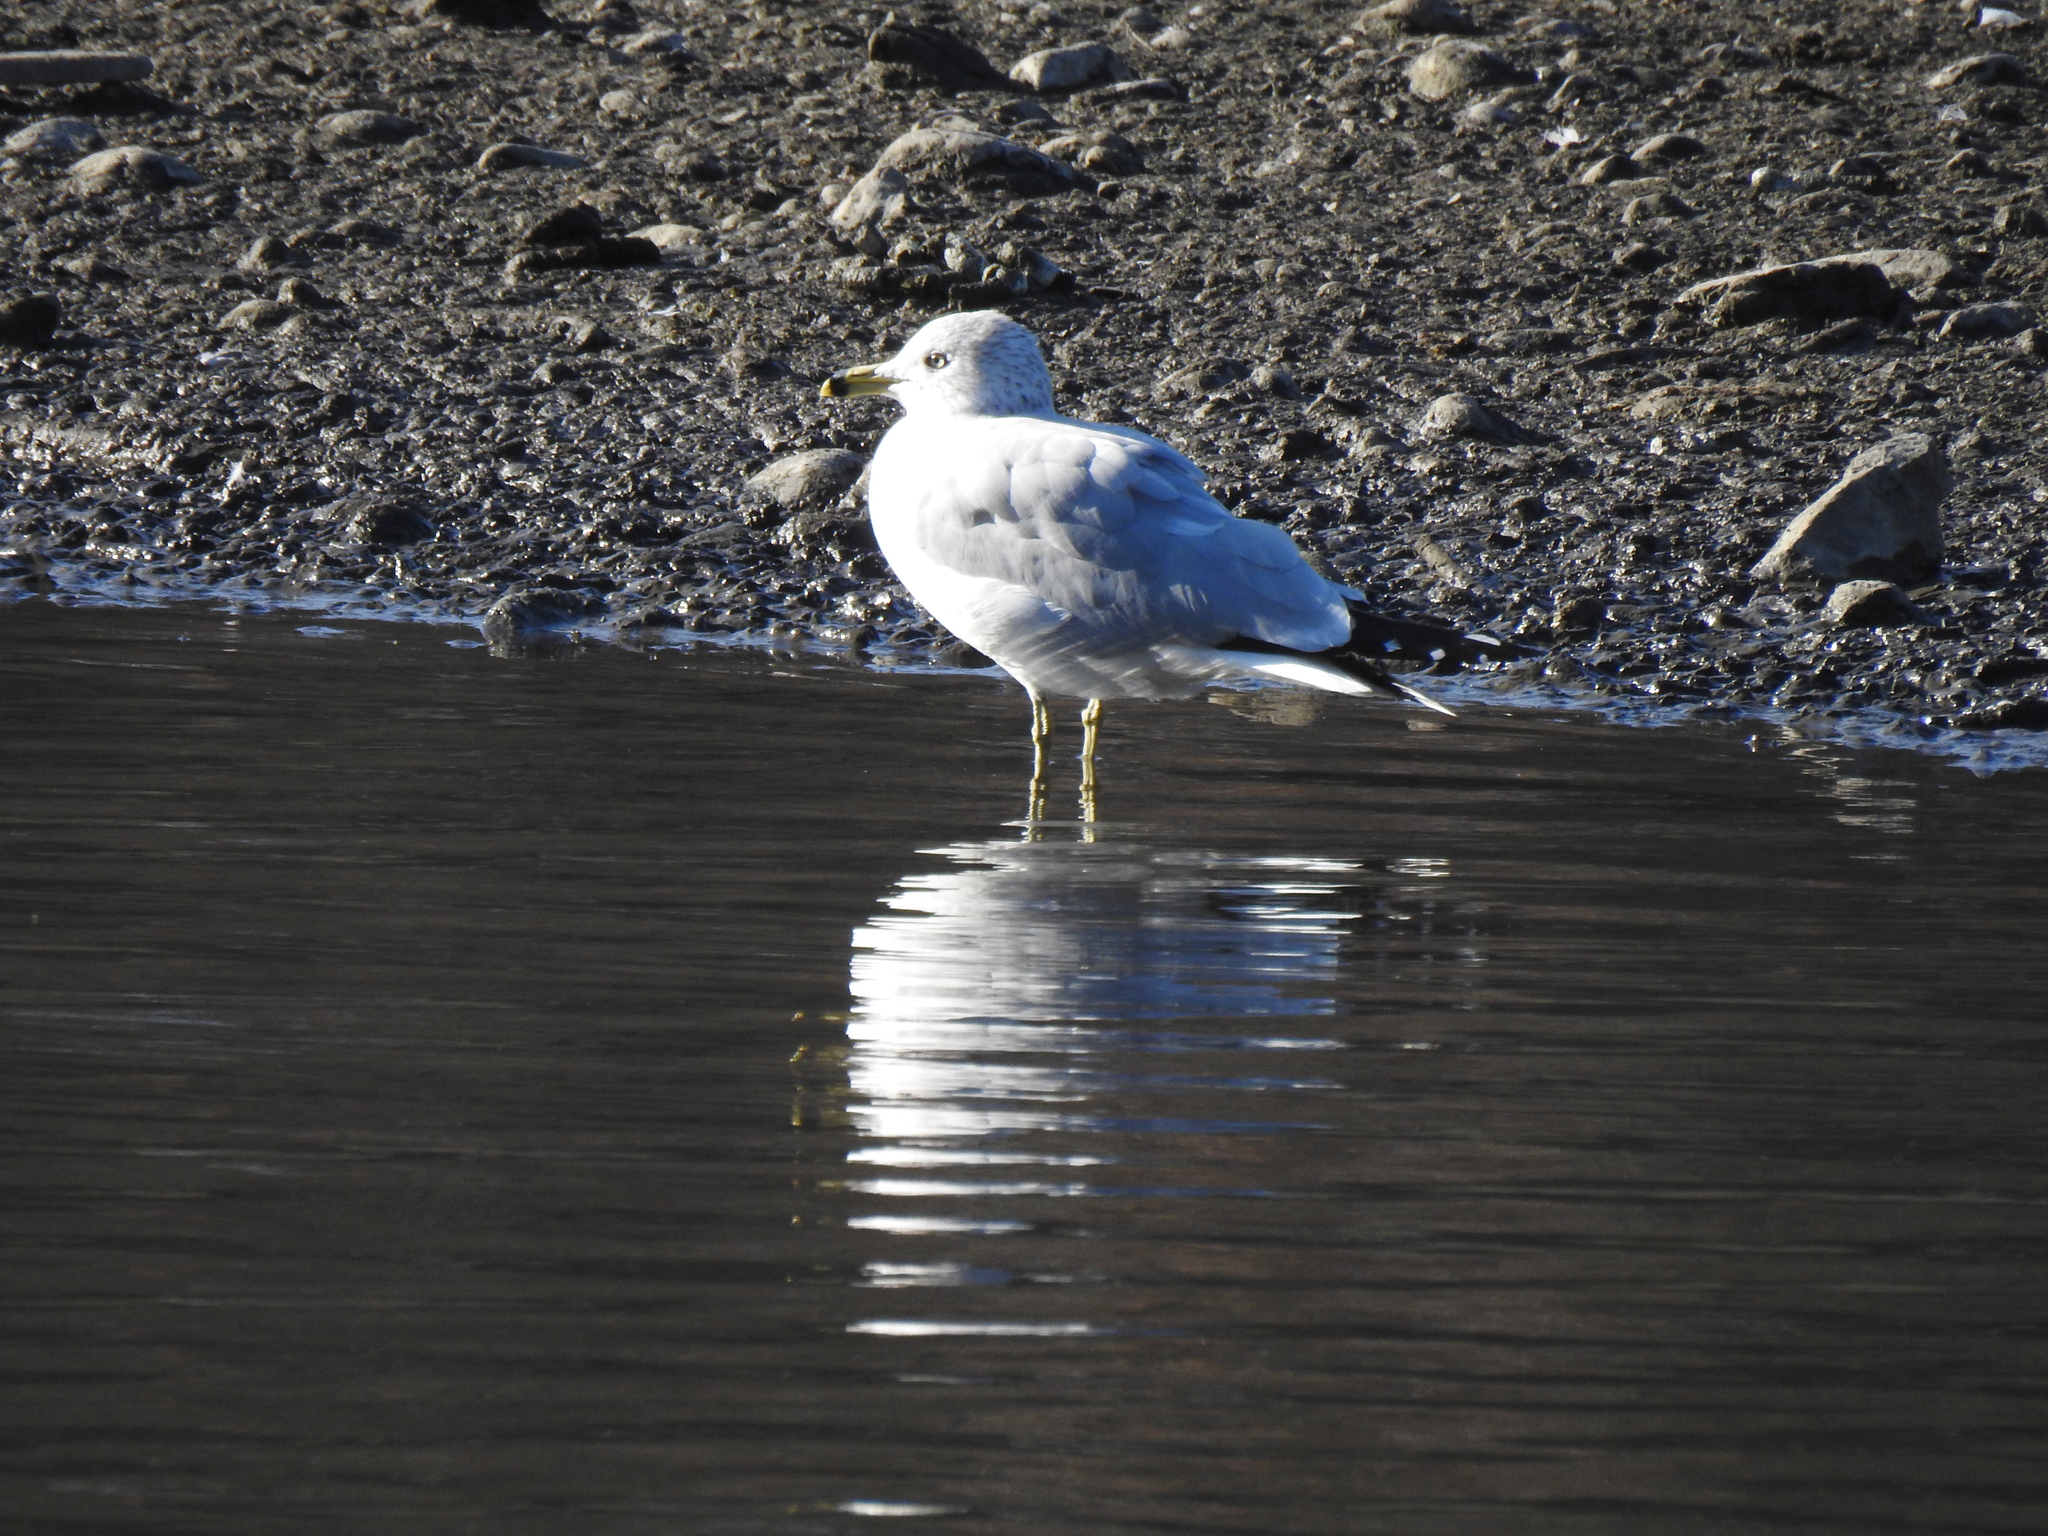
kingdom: Animalia
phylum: Chordata
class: Aves
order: Charadriiformes
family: Laridae
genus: Larus
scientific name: Larus delawarensis
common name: Ring-billed gull
